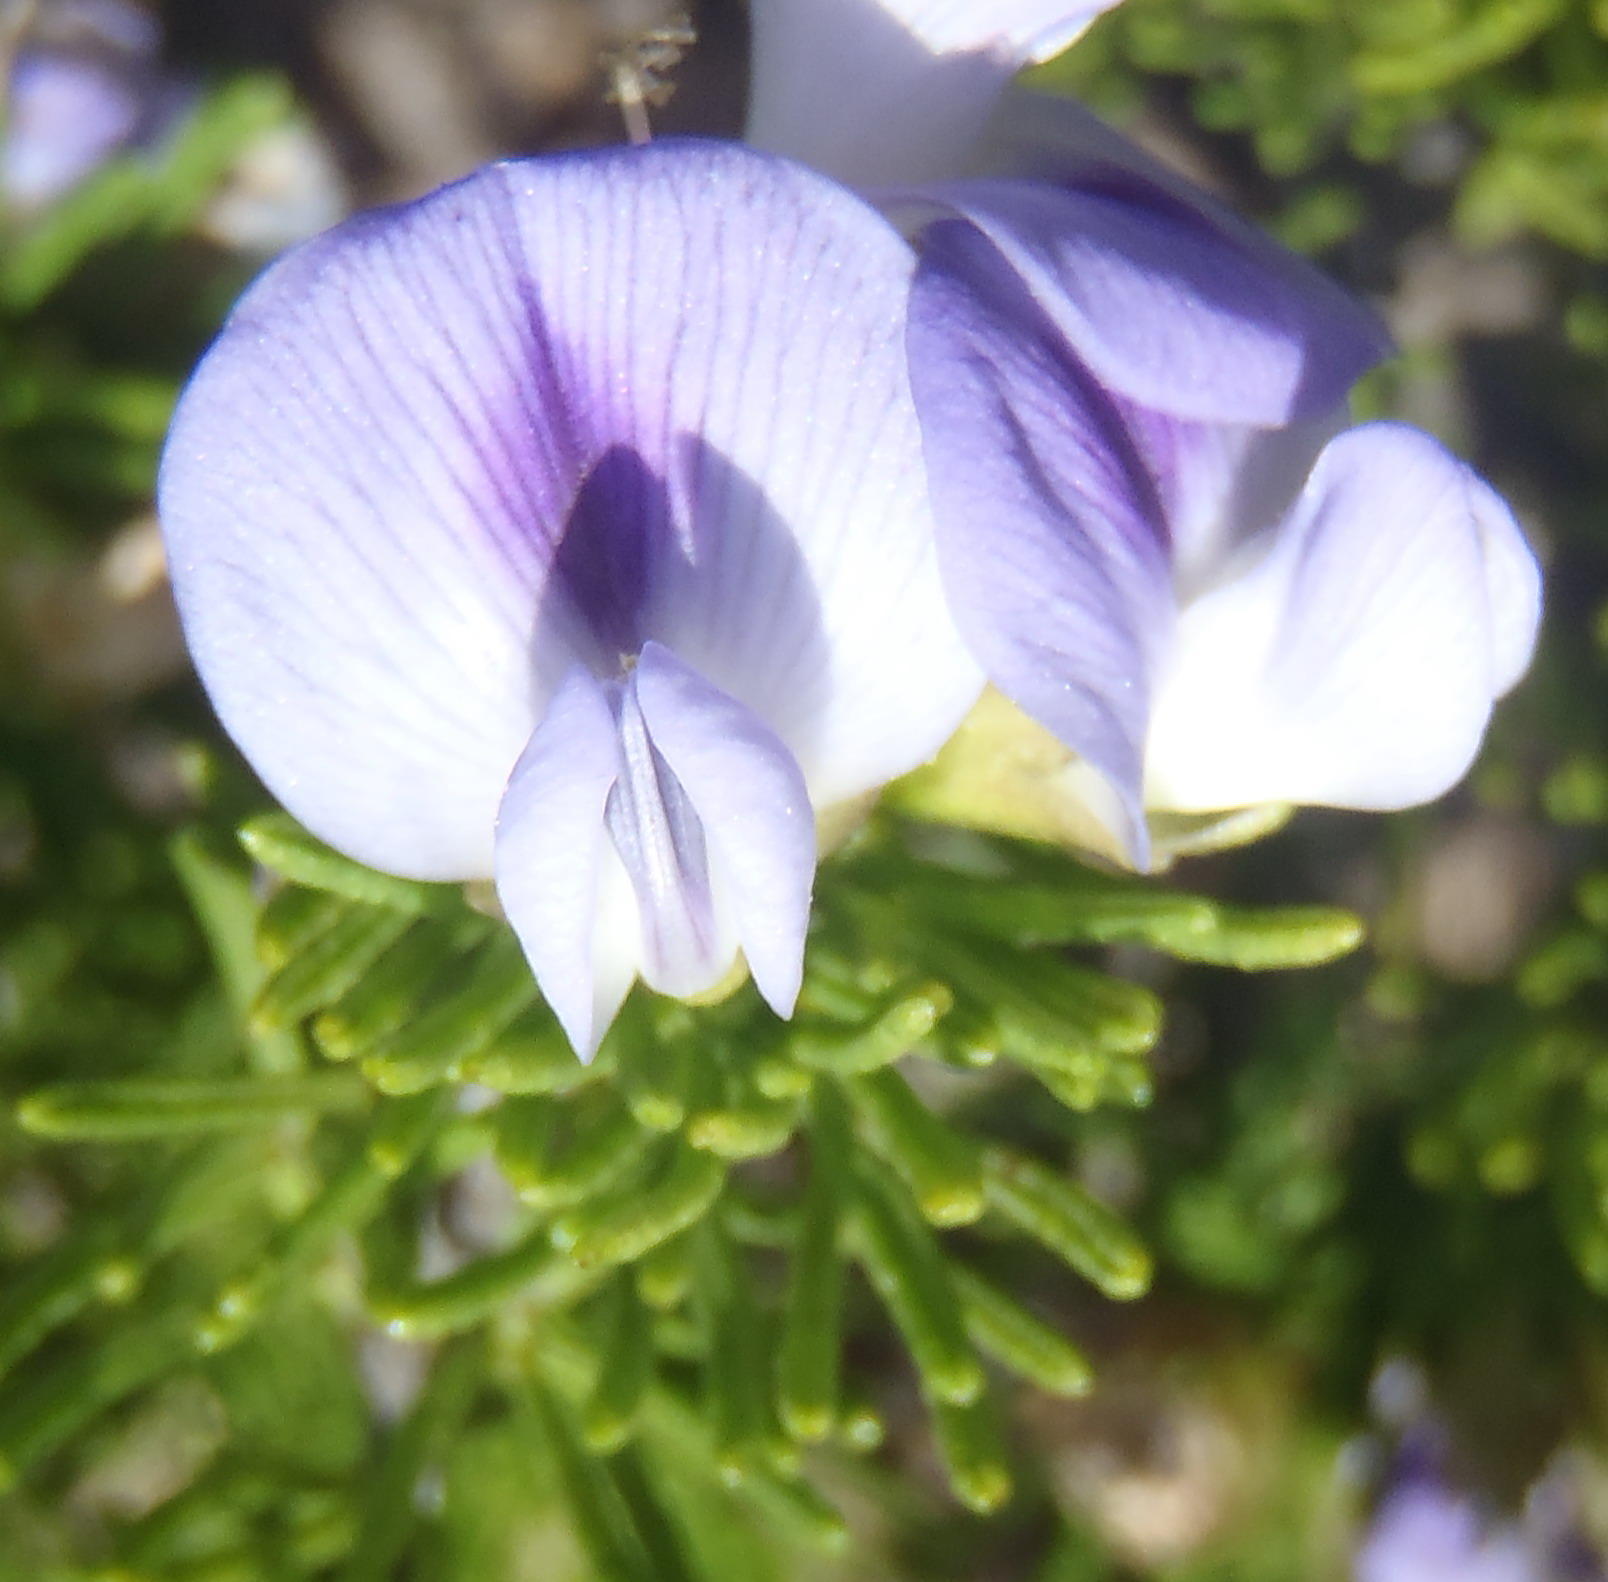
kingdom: Plantae
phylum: Tracheophyta
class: Magnoliopsida
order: Fabales
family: Fabaceae
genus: Psoralea
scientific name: Psoralea vanberkelae
